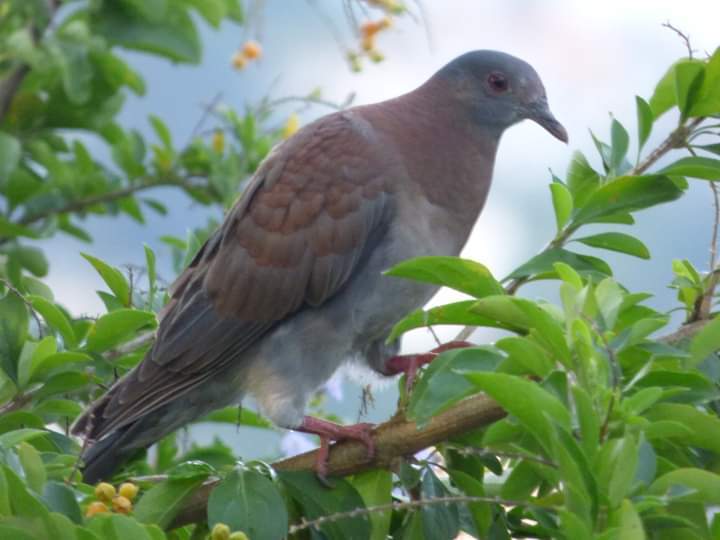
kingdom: Animalia
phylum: Chordata
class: Aves
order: Columbiformes
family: Columbidae
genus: Patagioenas
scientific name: Patagioenas cayennensis
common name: Pale-vented pigeon
